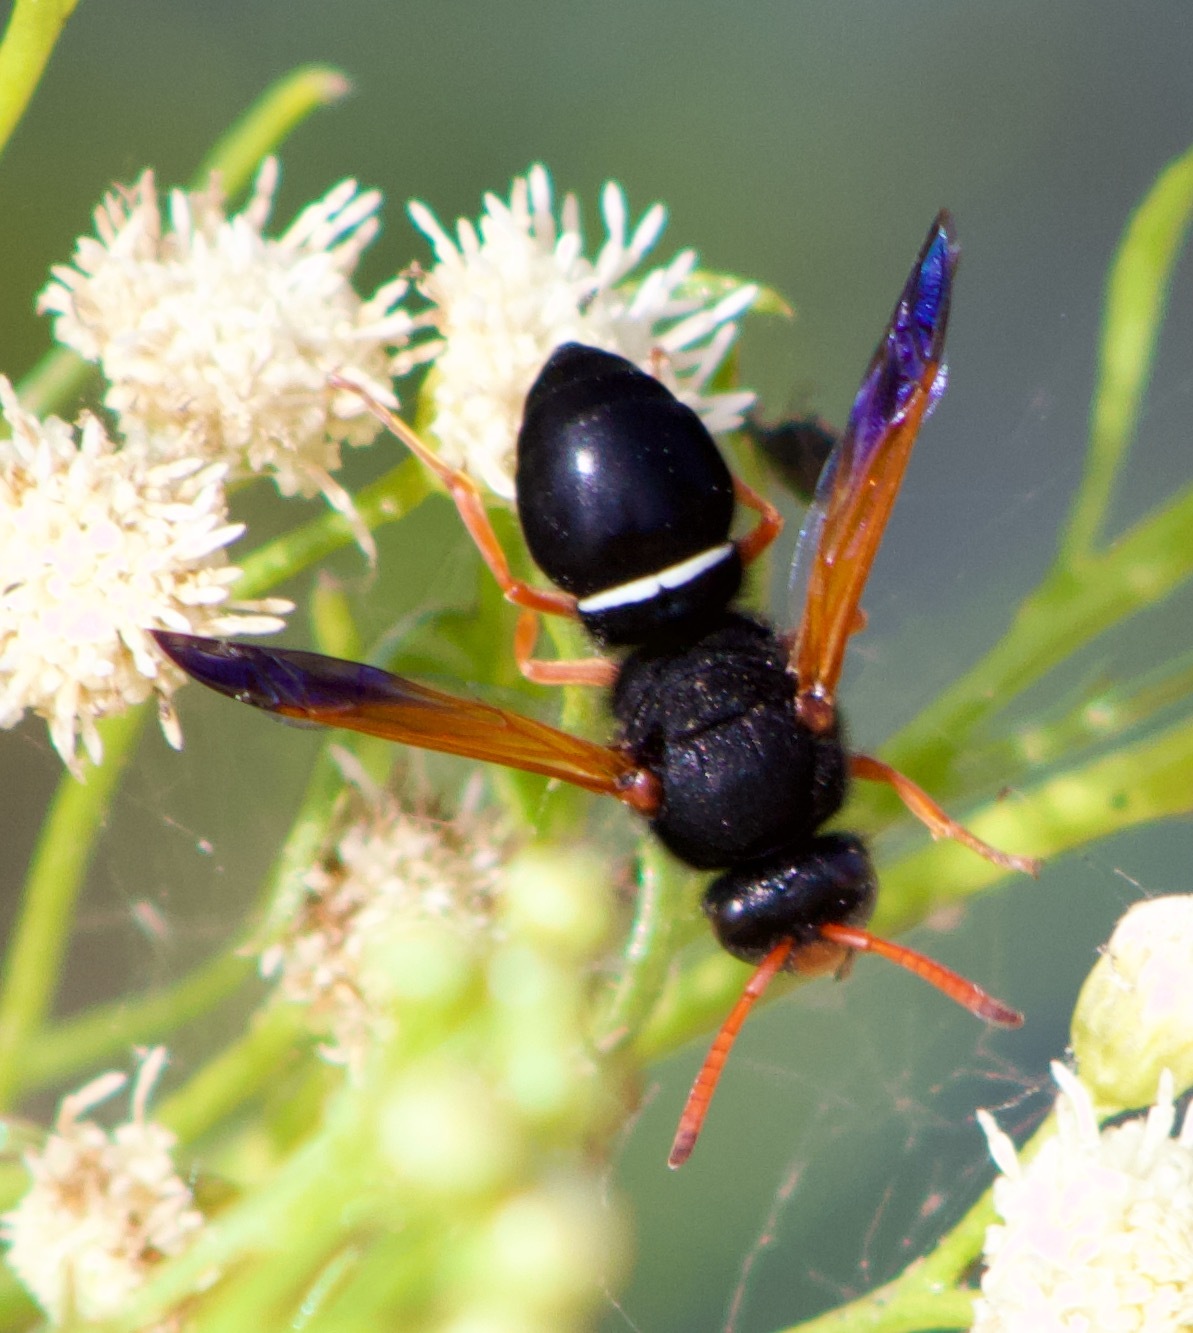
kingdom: Animalia
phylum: Arthropoda
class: Insecta
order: Hymenoptera
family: Vespidae
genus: Hypodynerus
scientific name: Hypodynerus vespiformis
